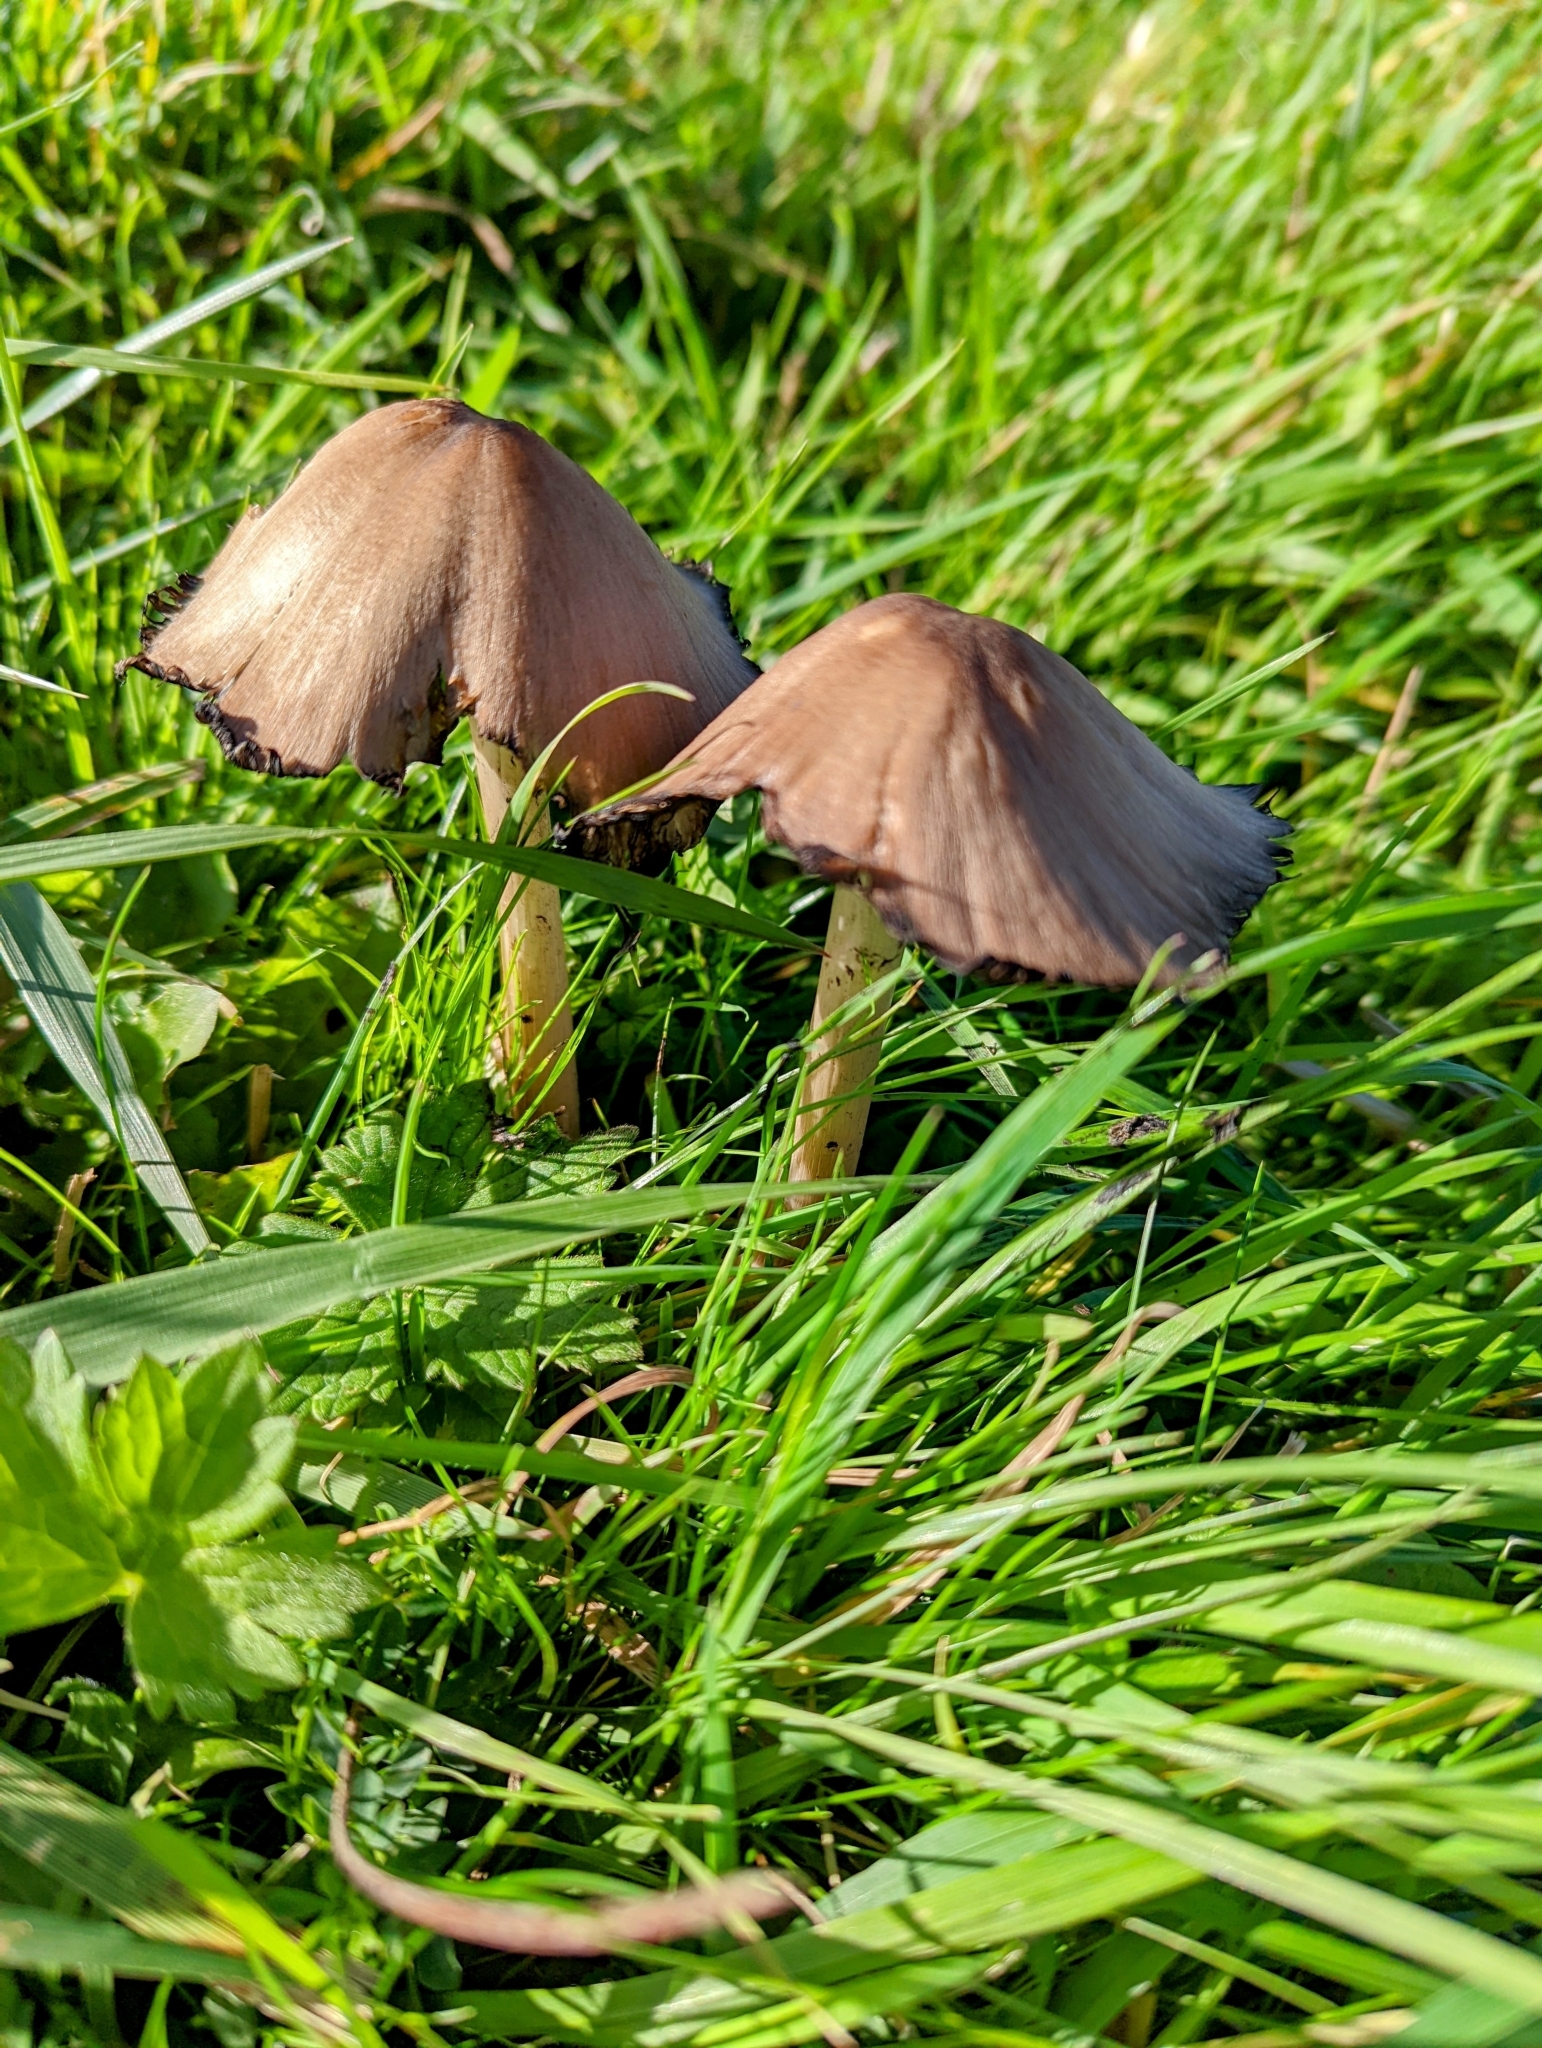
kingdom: Fungi
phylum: Basidiomycota
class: Agaricomycetes
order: Agaricales
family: Psathyrellaceae
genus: Coprinopsis
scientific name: Coprinopsis atramentaria
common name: Common ink-cap
